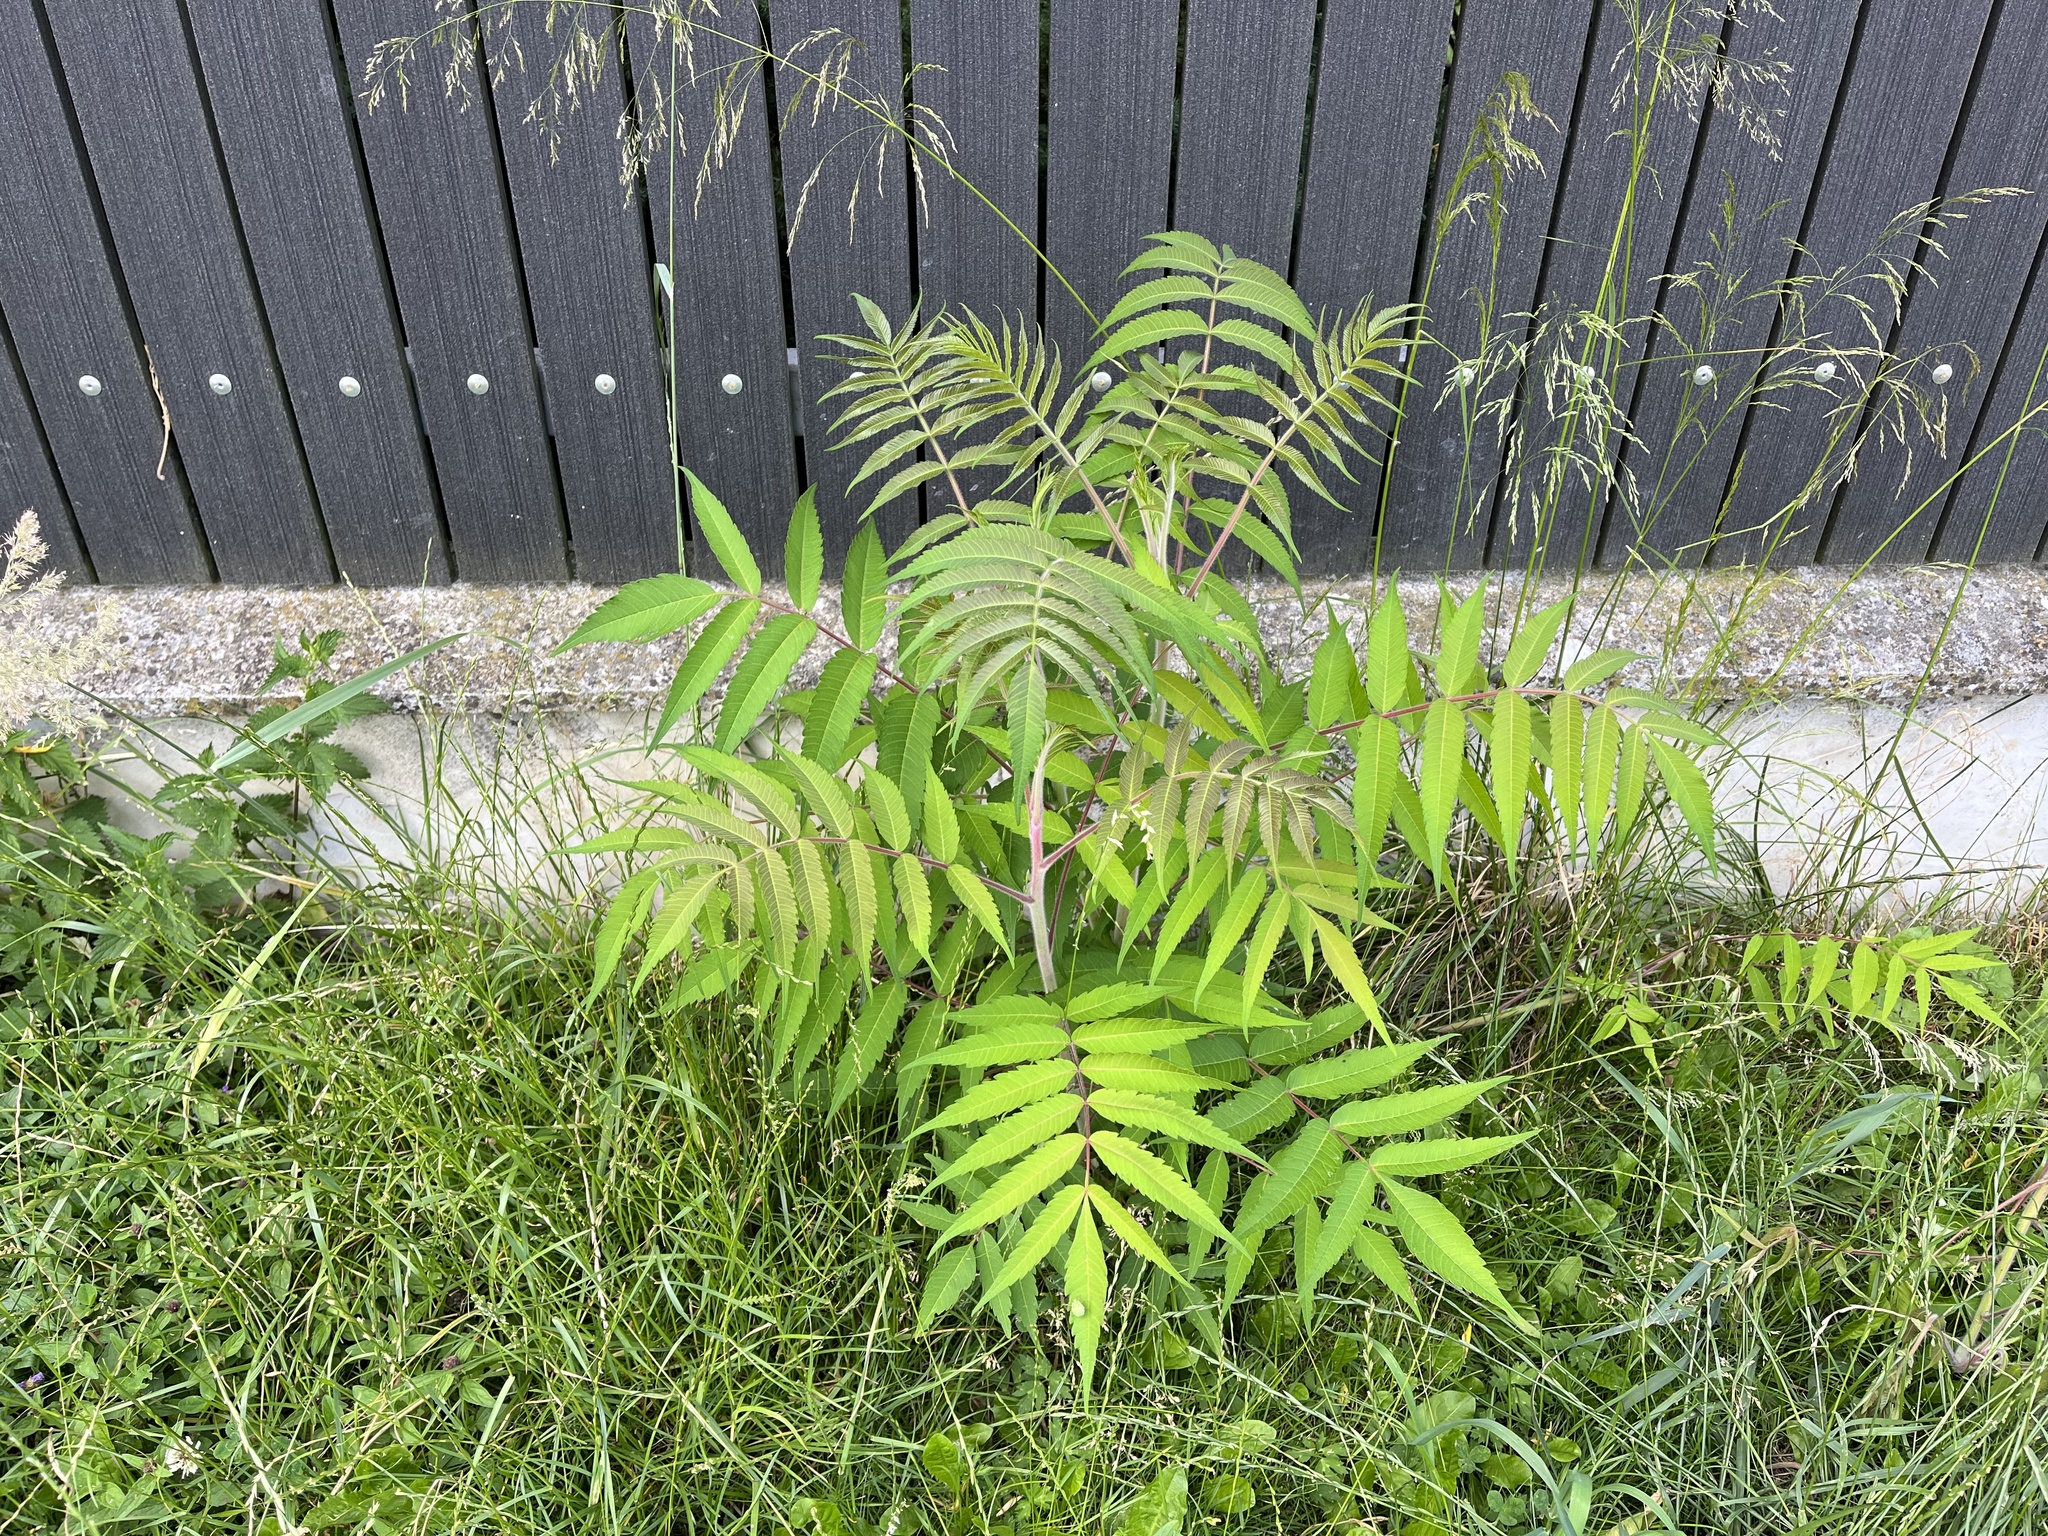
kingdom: Plantae
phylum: Tracheophyta
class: Magnoliopsida
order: Sapindales
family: Simaroubaceae
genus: Ailanthus
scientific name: Ailanthus altissima
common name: Tree-of-heaven
